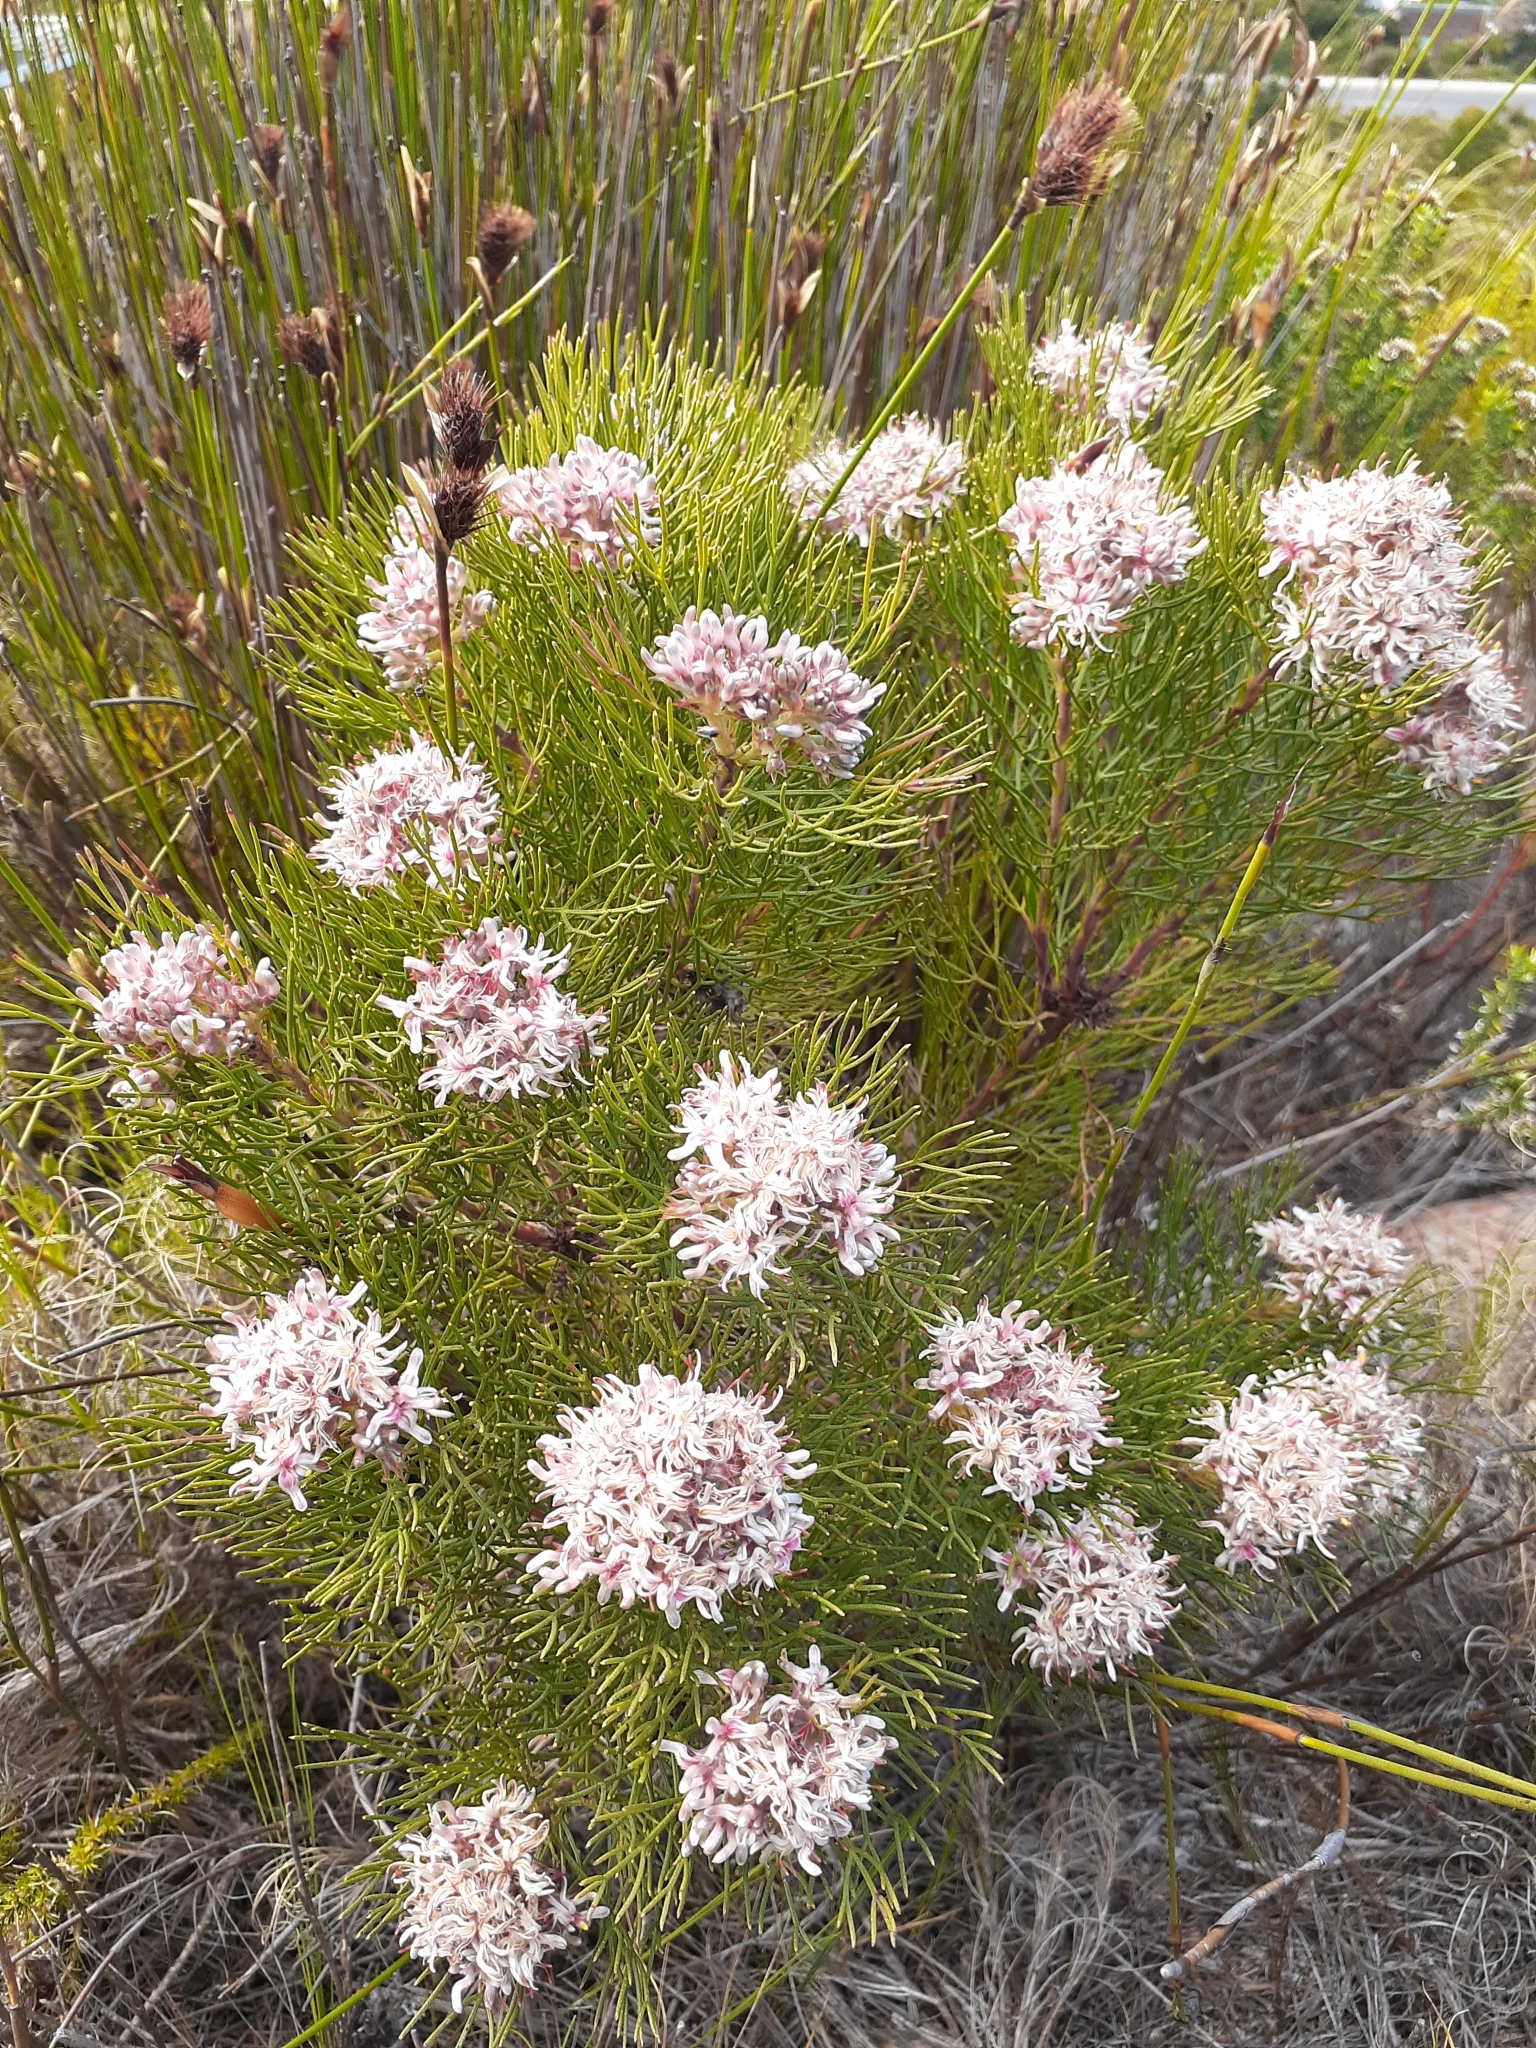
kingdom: Plantae
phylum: Tracheophyta
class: Magnoliopsida
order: Proteales
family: Proteaceae
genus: Serruria
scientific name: Serruria ascendens
